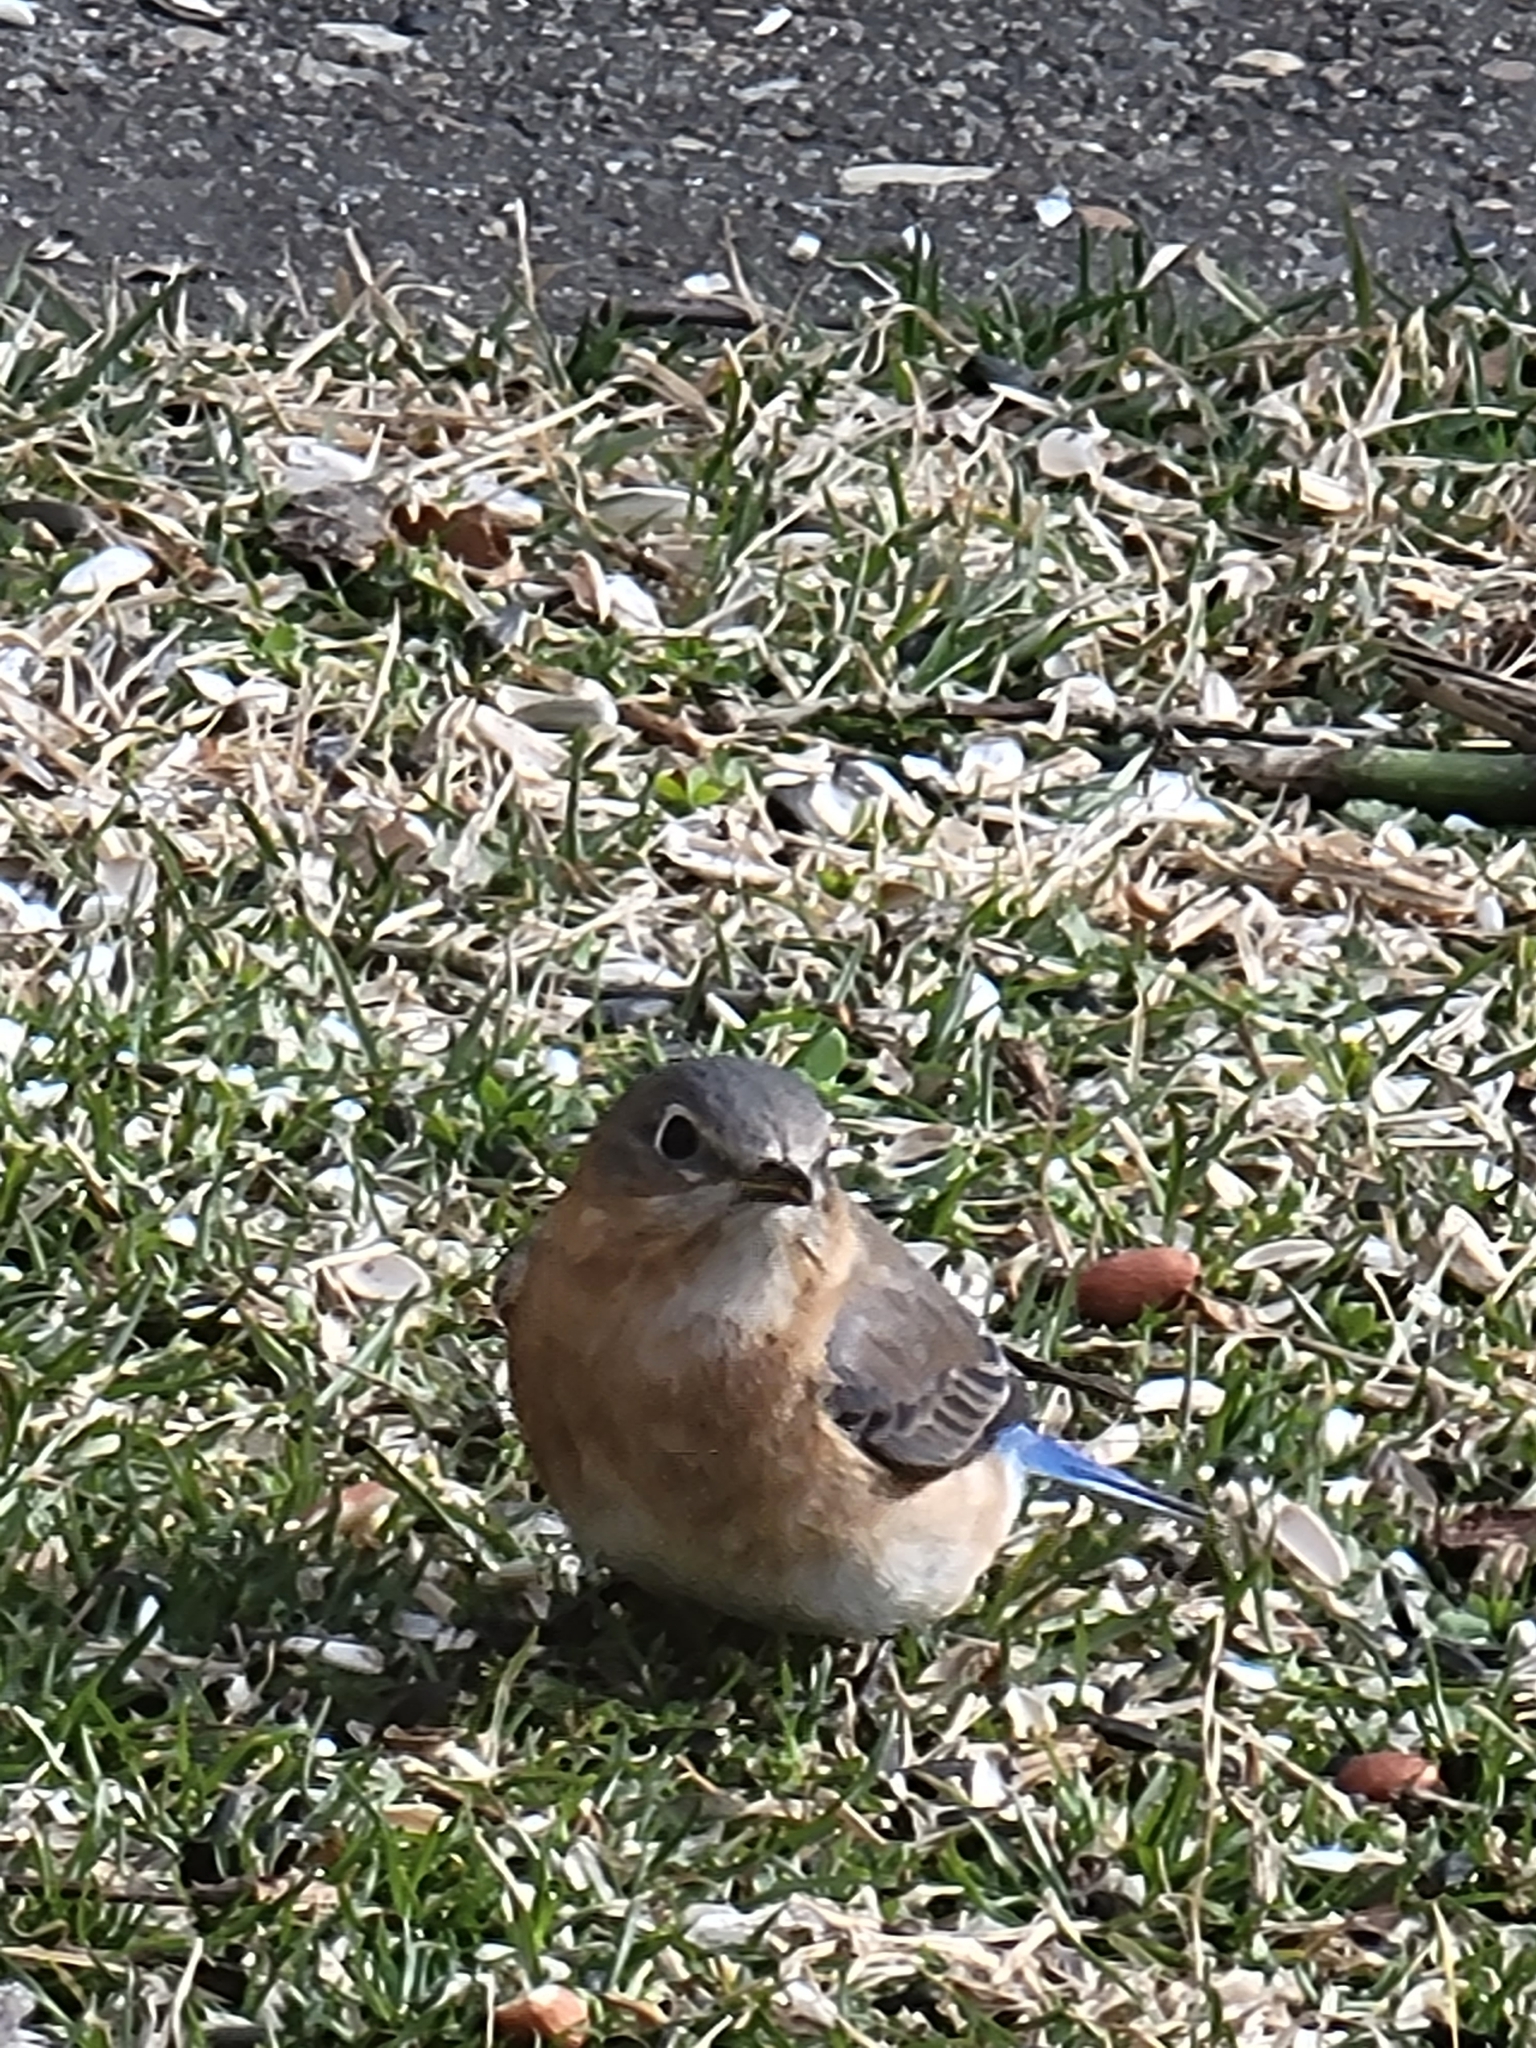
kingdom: Animalia
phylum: Chordata
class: Aves
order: Passeriformes
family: Turdidae
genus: Sialia
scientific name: Sialia sialis
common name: Eastern bluebird
